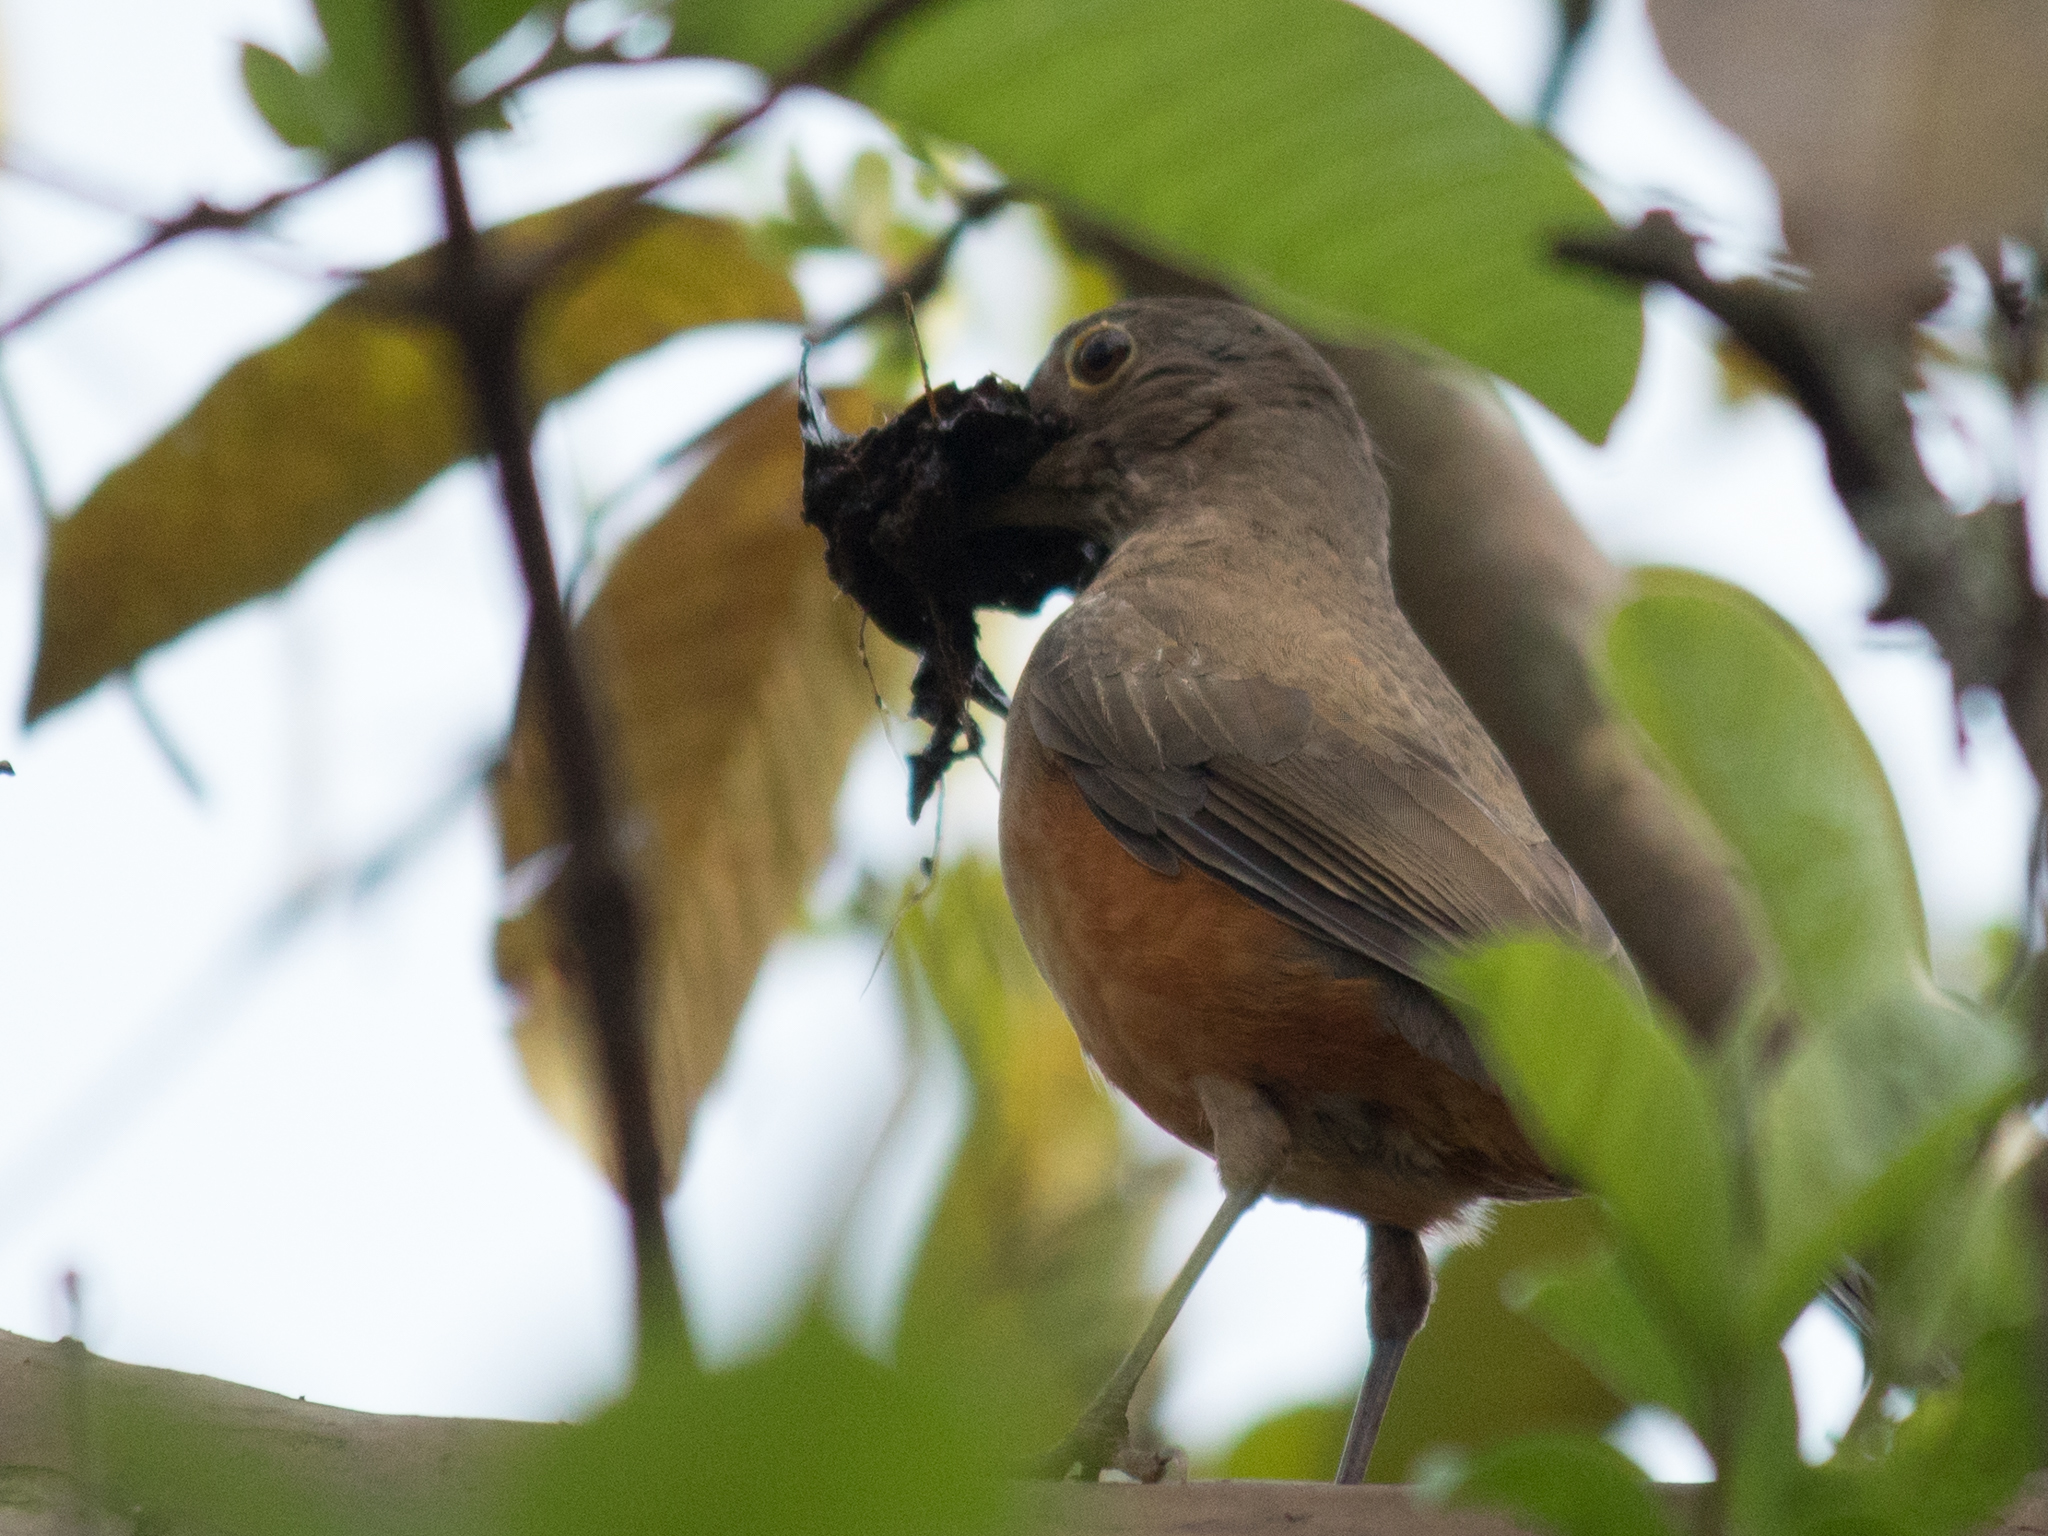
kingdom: Animalia
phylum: Chordata
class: Aves
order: Passeriformes
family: Turdidae
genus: Turdus
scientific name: Turdus rufiventris
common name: Rufous-bellied thrush
